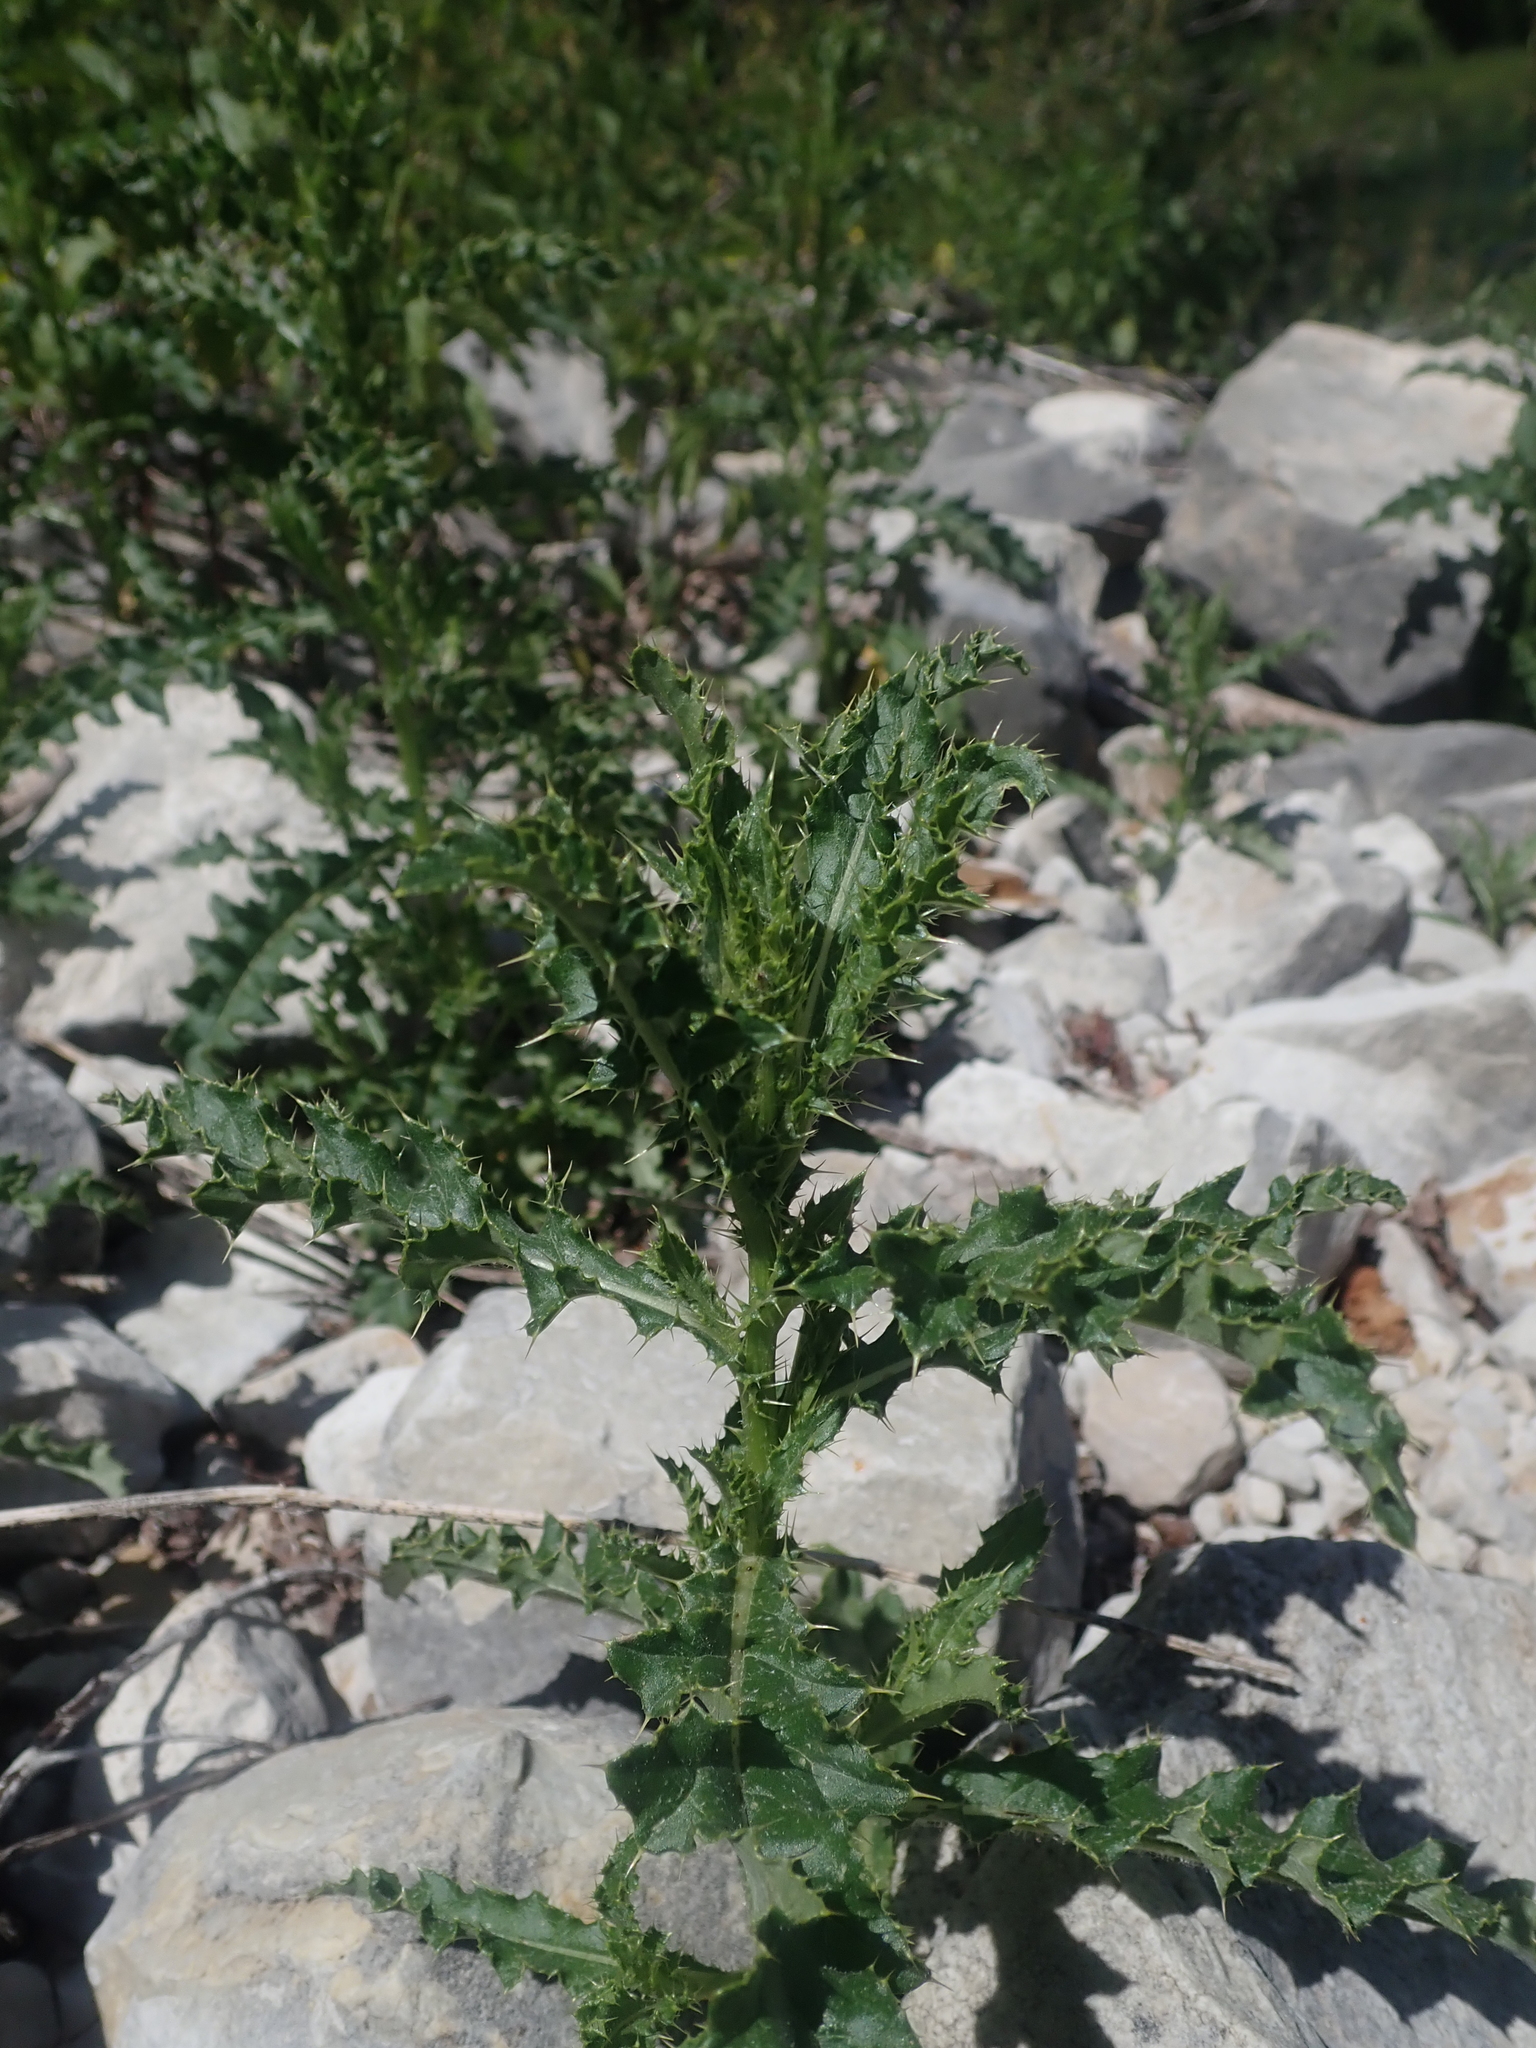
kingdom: Plantae
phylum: Tracheophyta
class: Magnoliopsida
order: Asterales
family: Asteraceae
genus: Cirsium
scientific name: Cirsium arvense
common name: Creeping thistle
